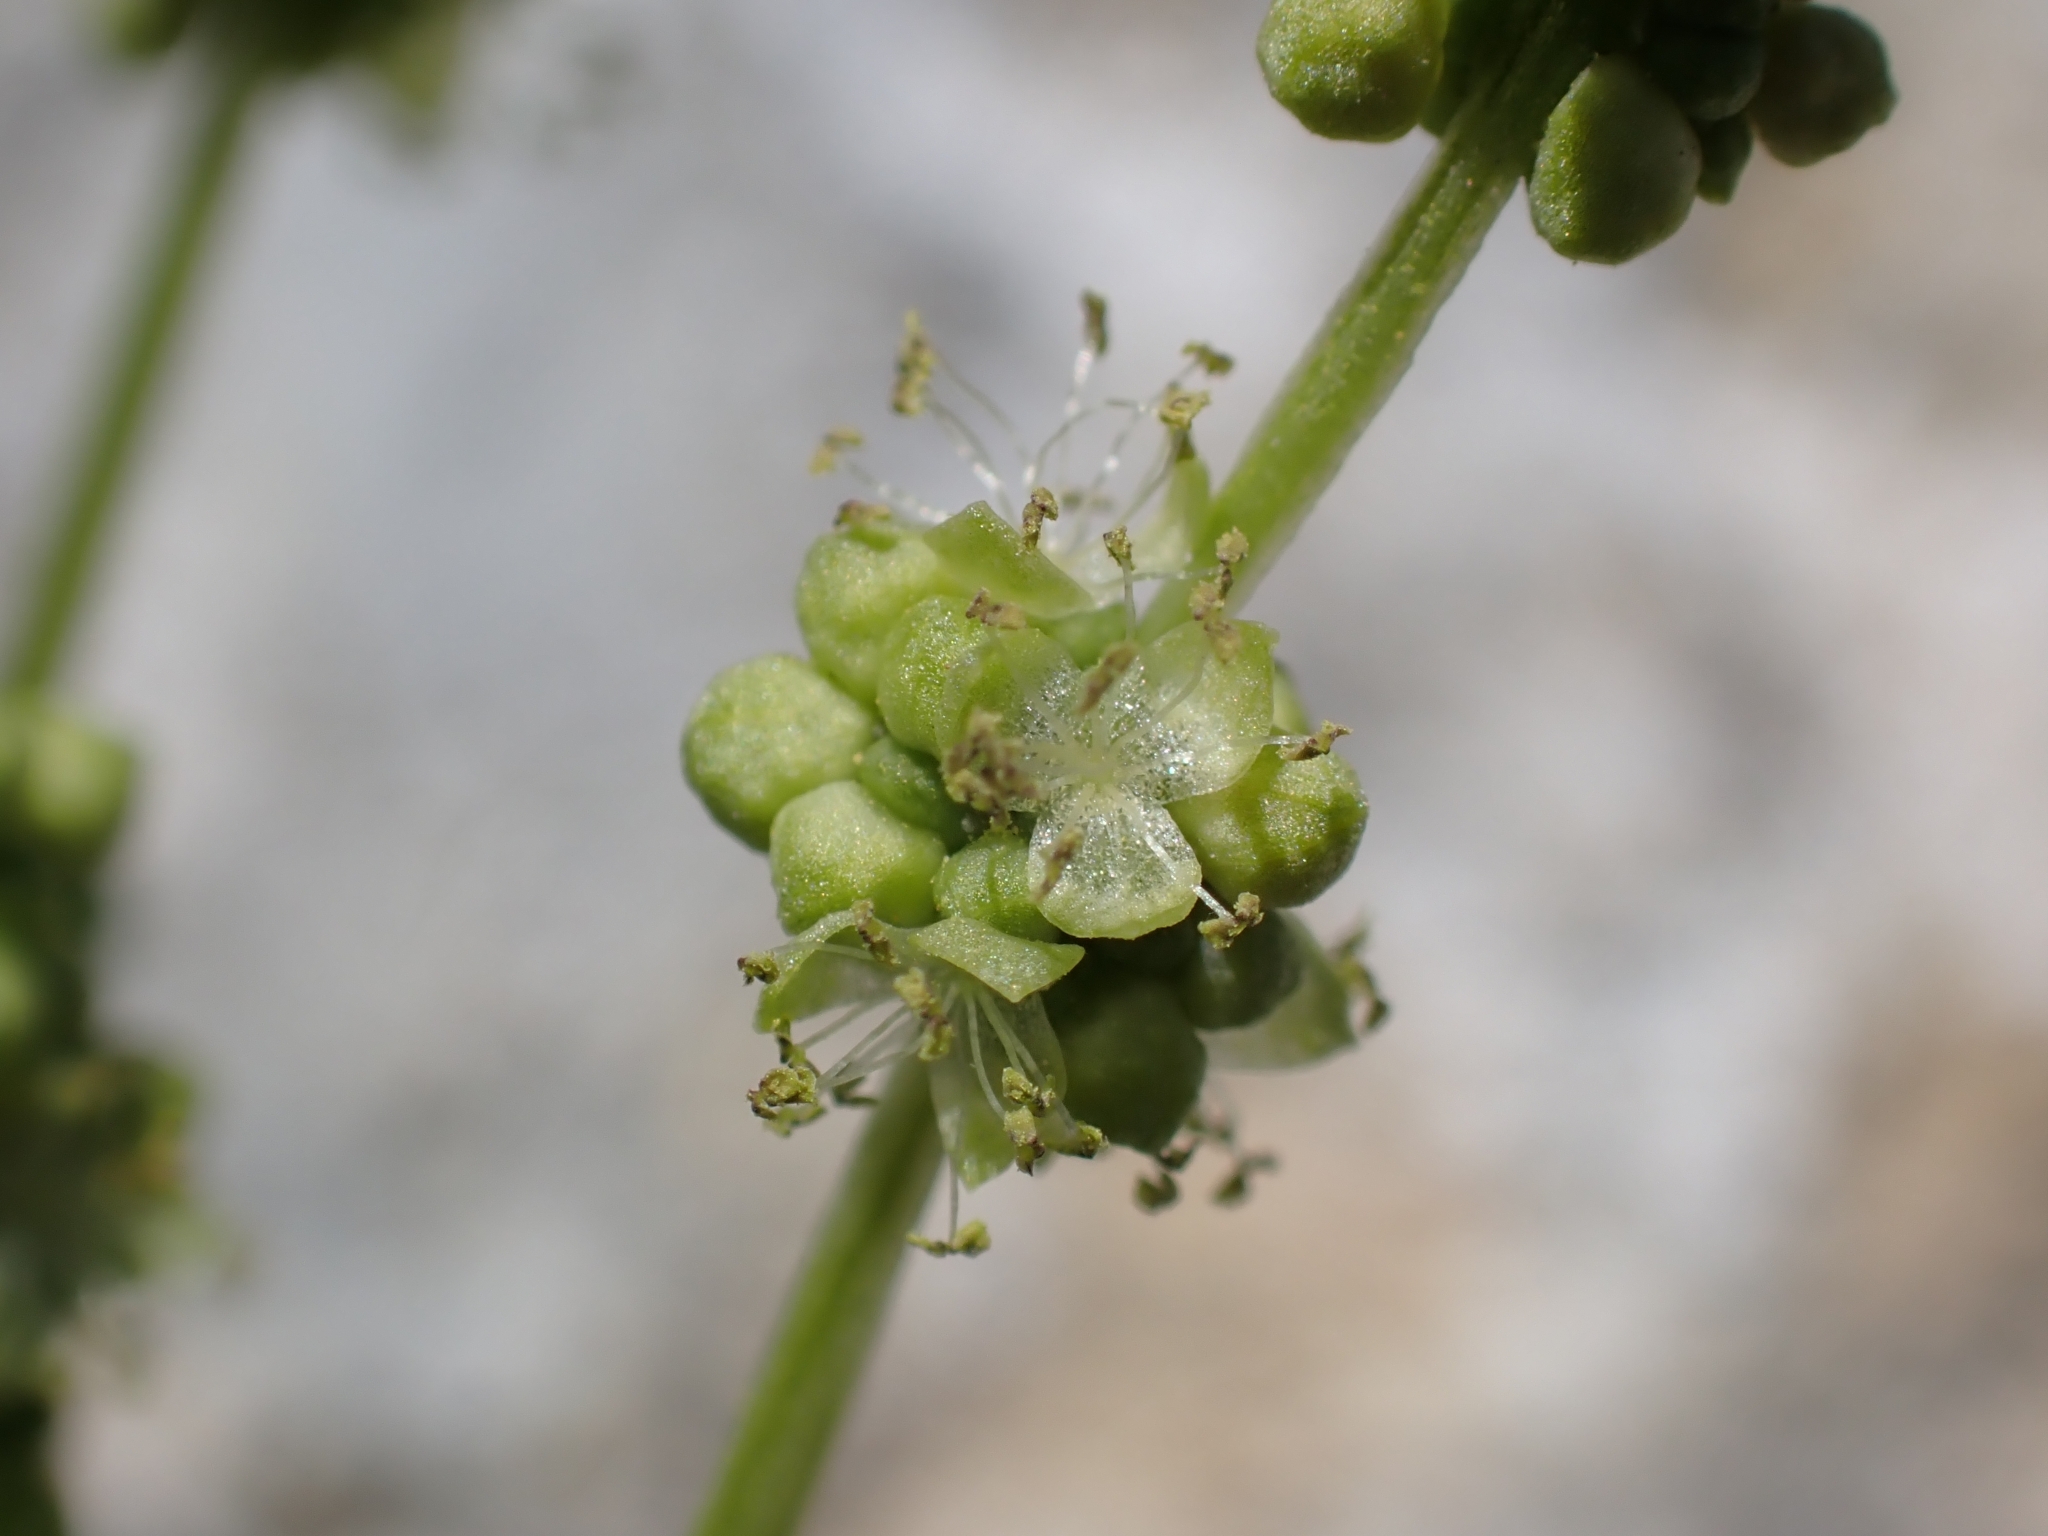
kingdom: Plantae
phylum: Tracheophyta
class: Magnoliopsida
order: Malpighiales
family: Euphorbiaceae
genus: Mercurialis
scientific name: Mercurialis annua
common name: Annual mercury
